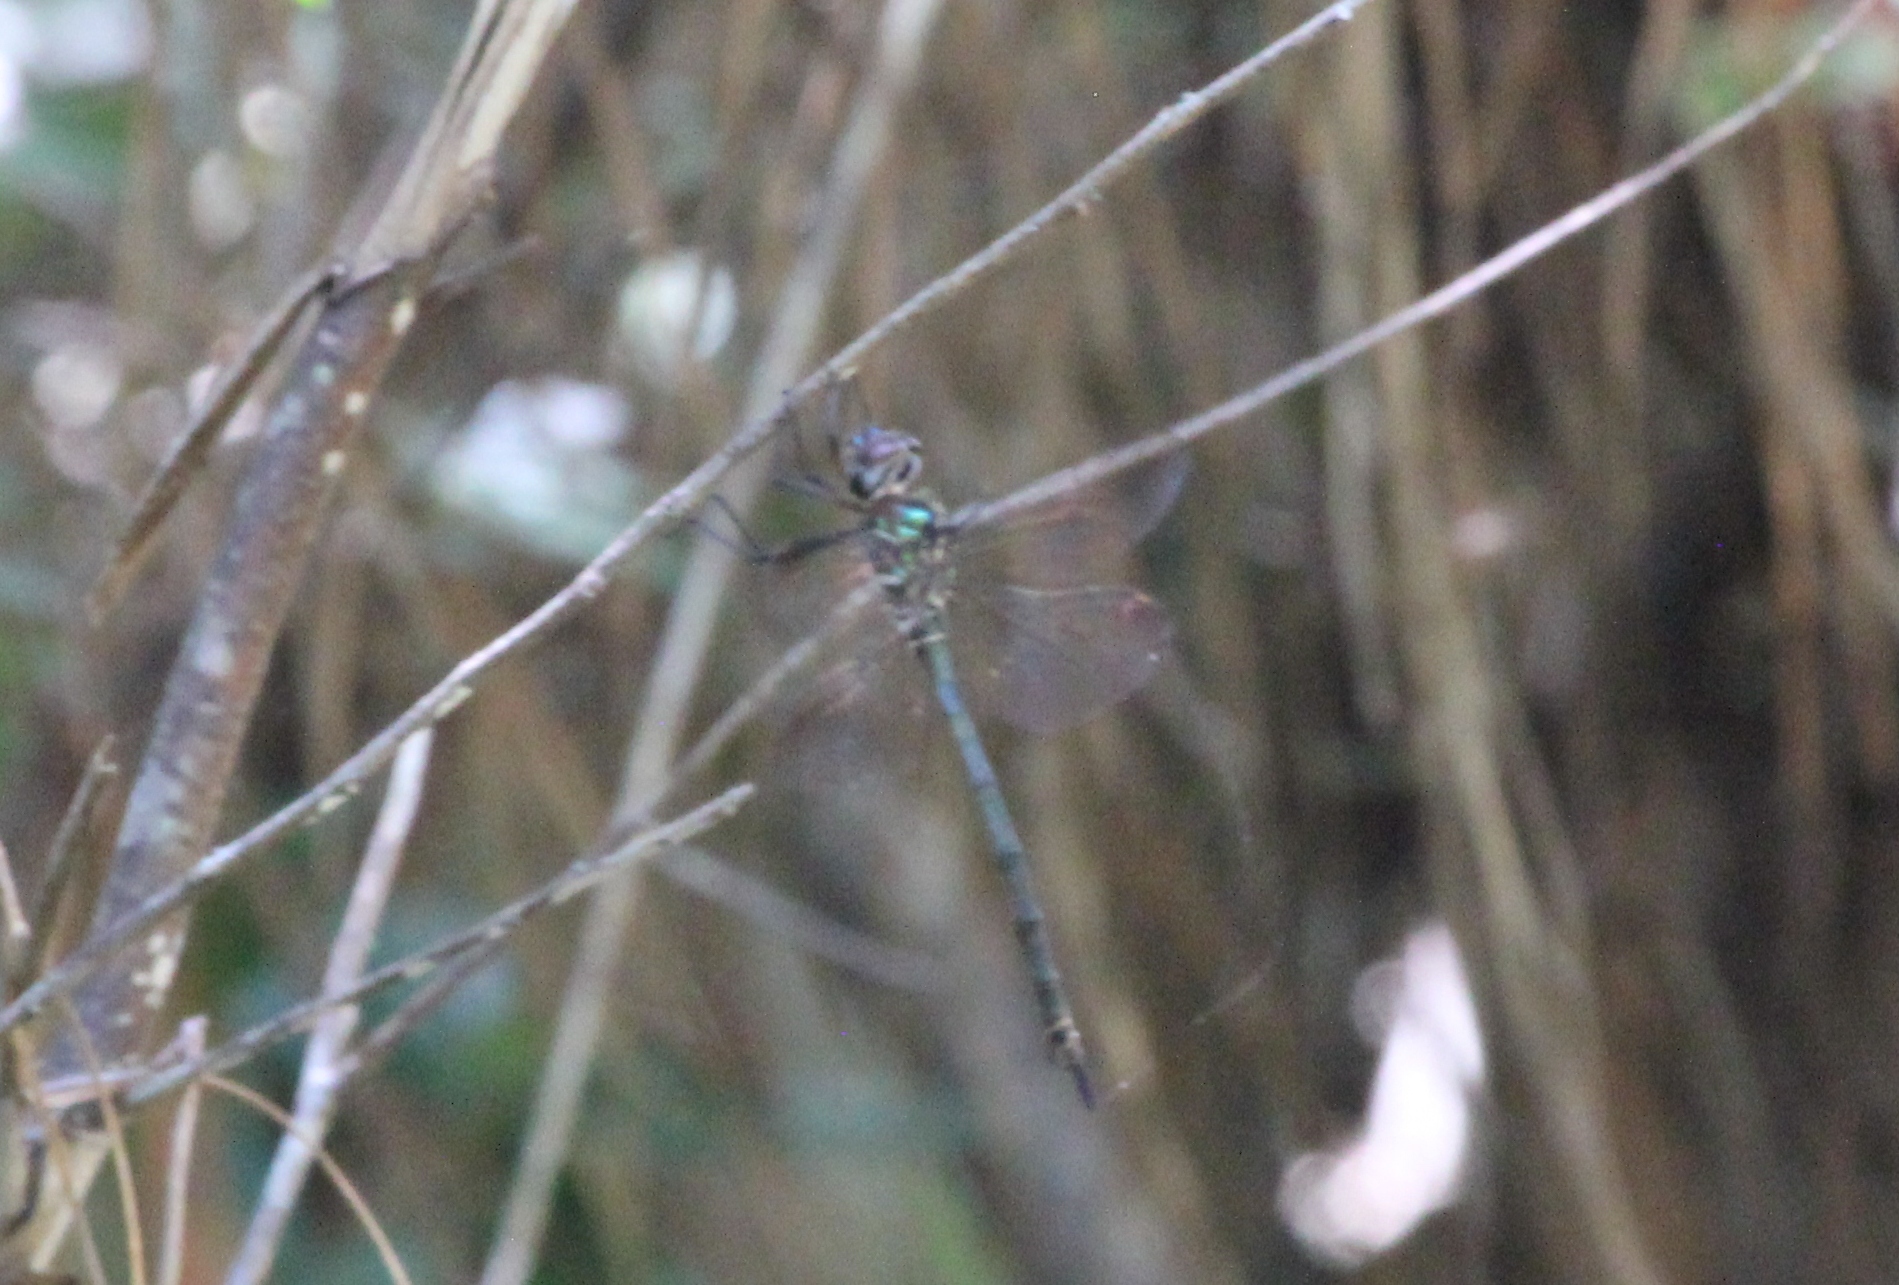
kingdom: Animalia
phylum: Arthropoda
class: Insecta
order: Odonata
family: Corduliidae
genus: Somatochlora
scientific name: Somatochlora filosa
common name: Fine-lined emerald
